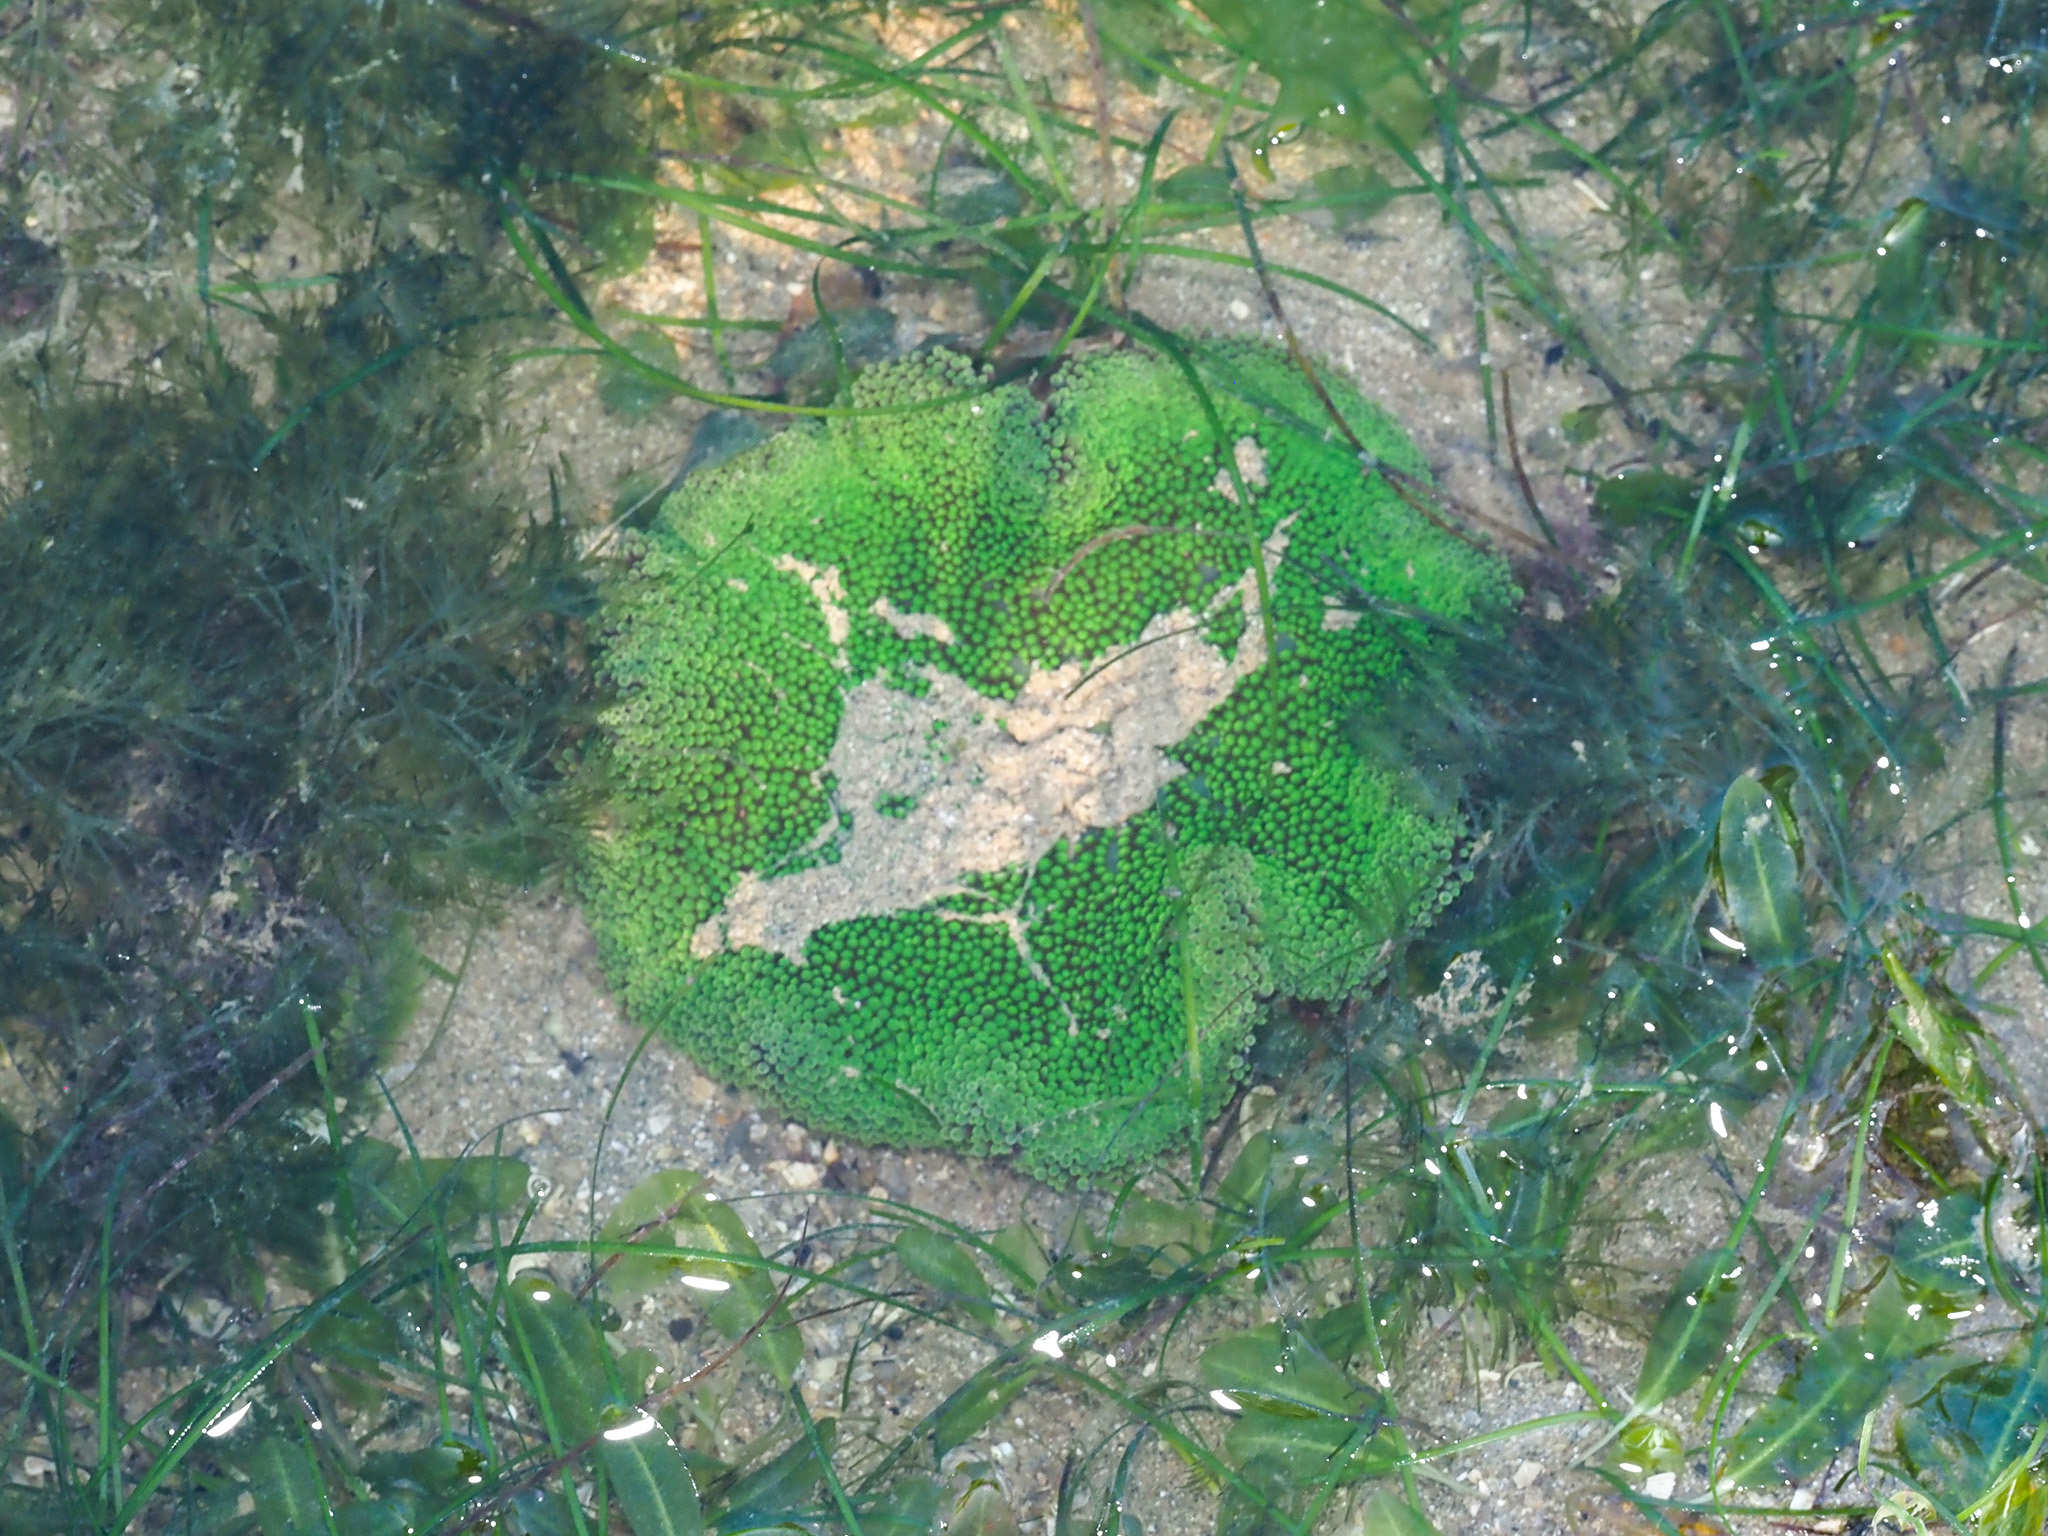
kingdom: Animalia
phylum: Cnidaria
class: Anthozoa
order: Actiniaria
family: Stichodactylidae
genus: Stichodactyla
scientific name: Stichodactyla haddoni
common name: Haddon's sea anemone
